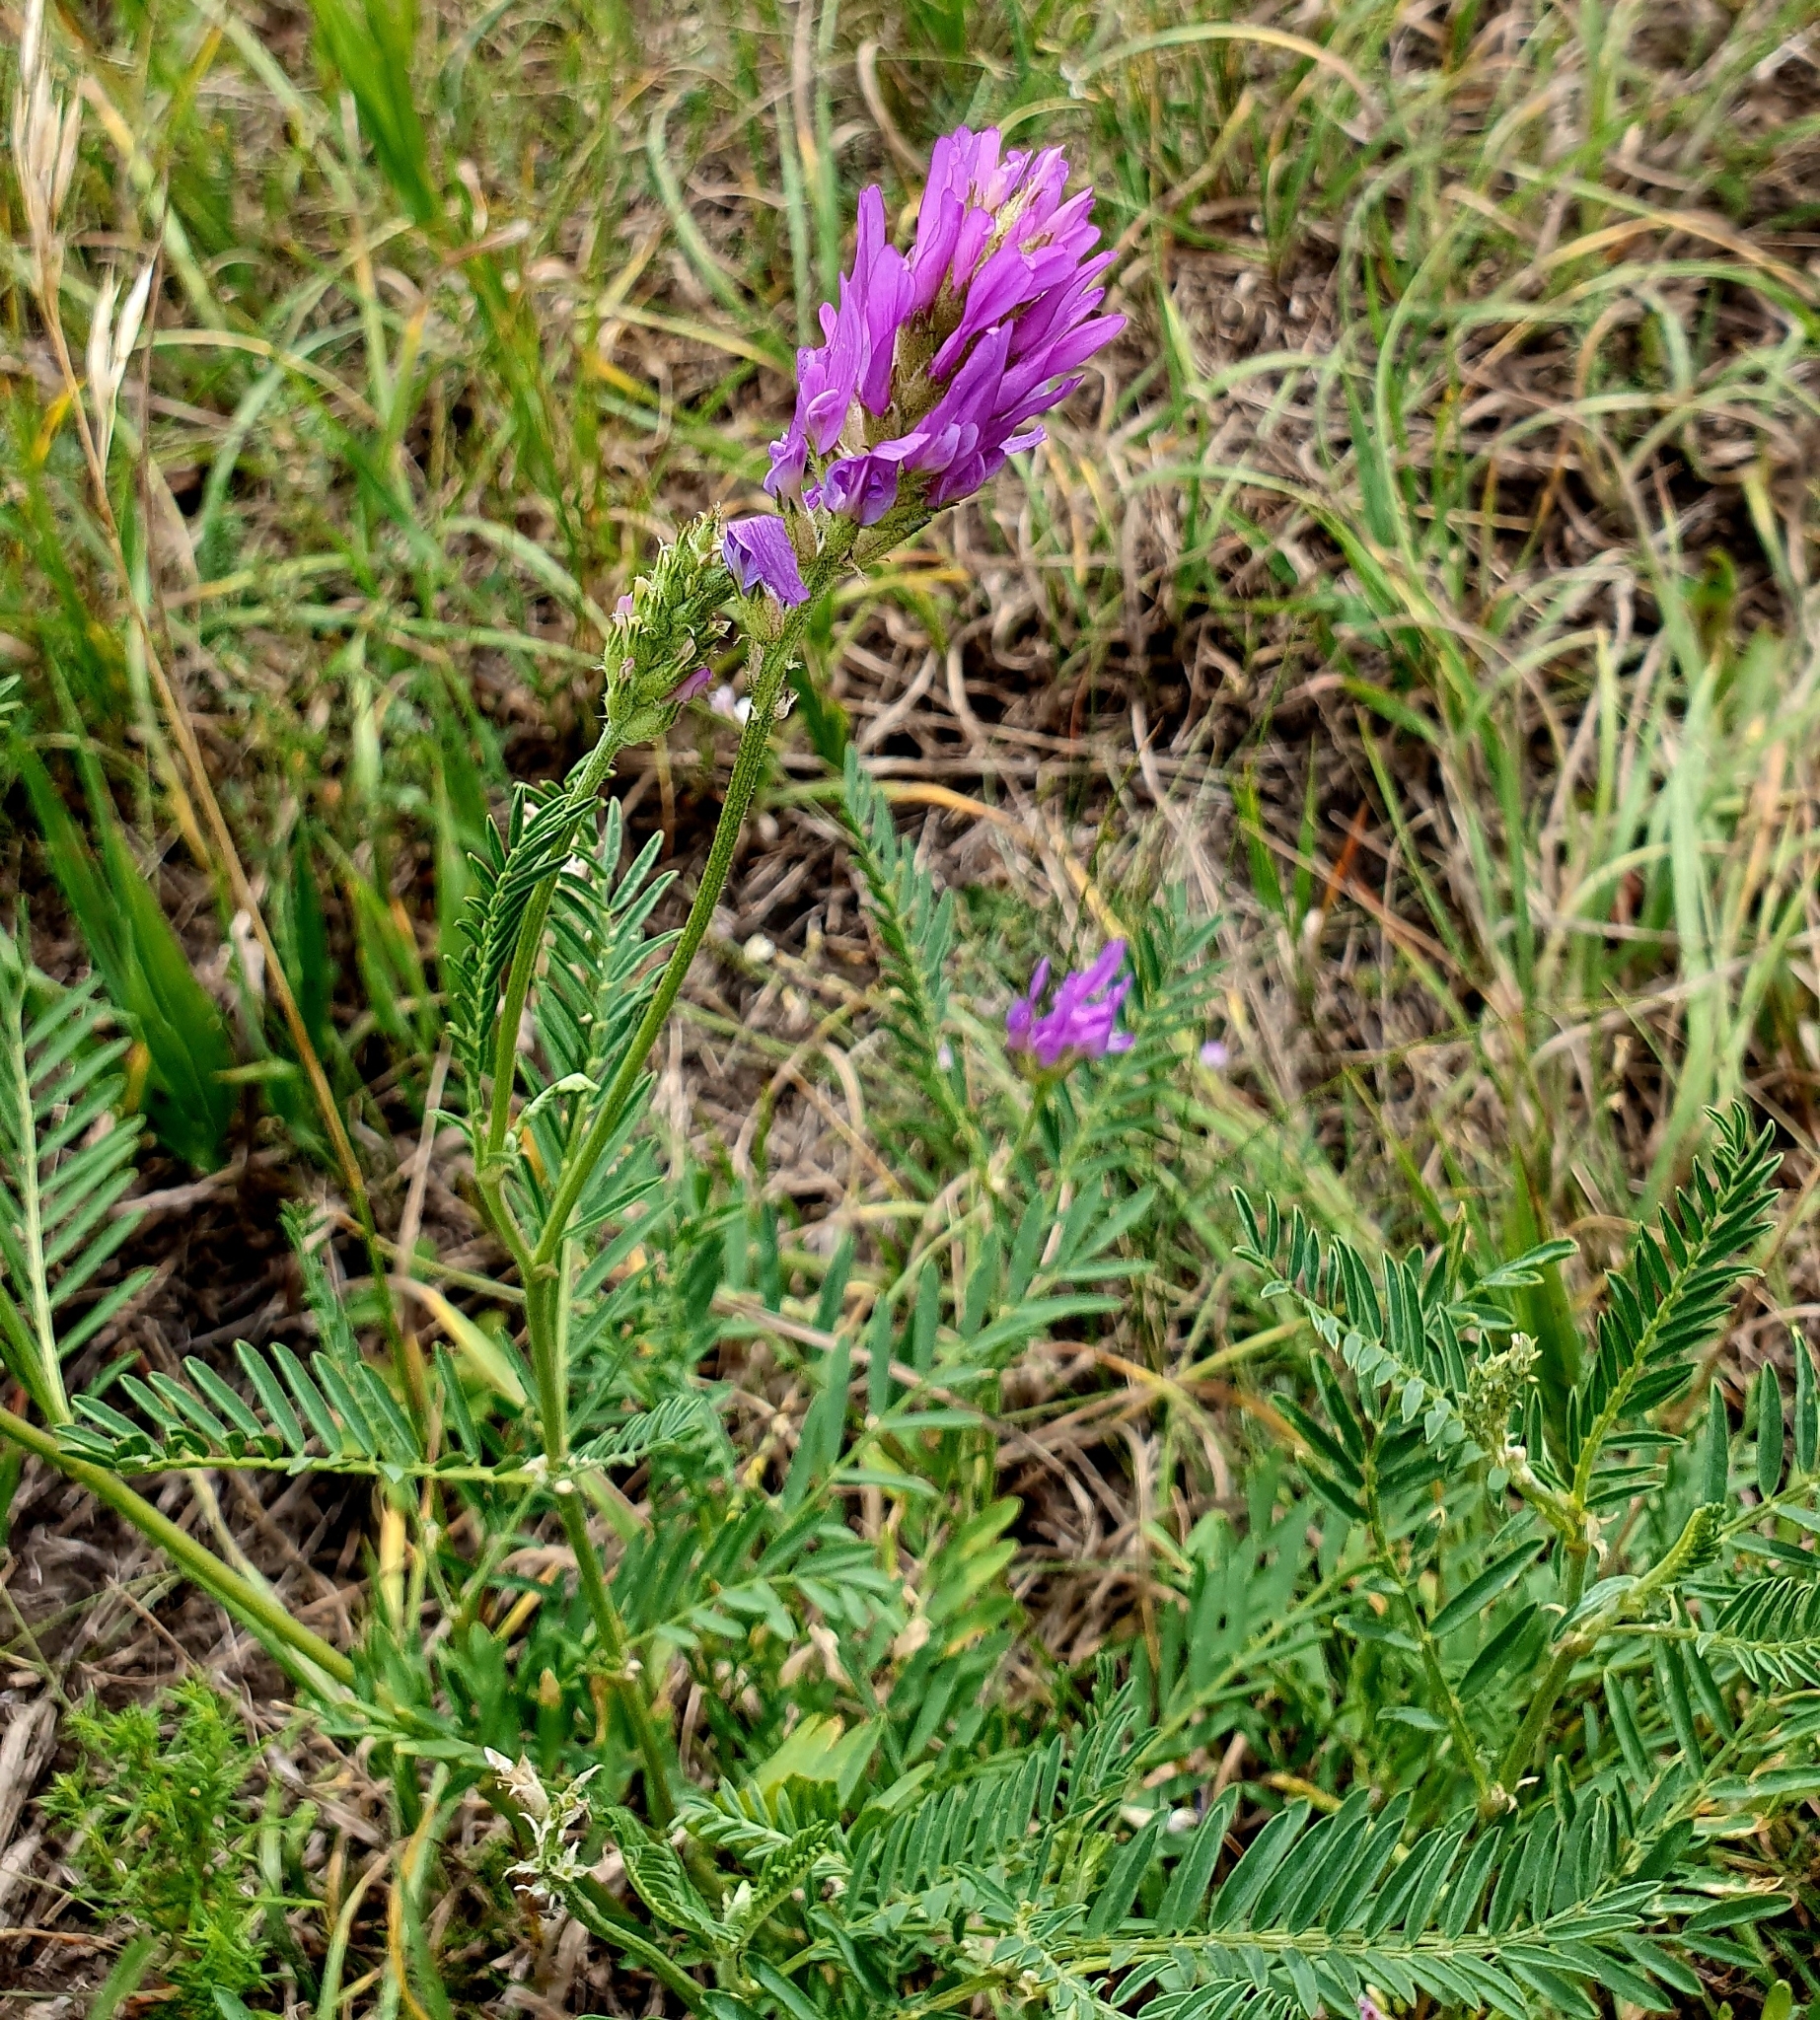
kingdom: Plantae
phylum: Tracheophyta
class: Magnoliopsida
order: Fabales
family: Fabaceae
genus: Astragalus
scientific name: Astragalus onobrychis
